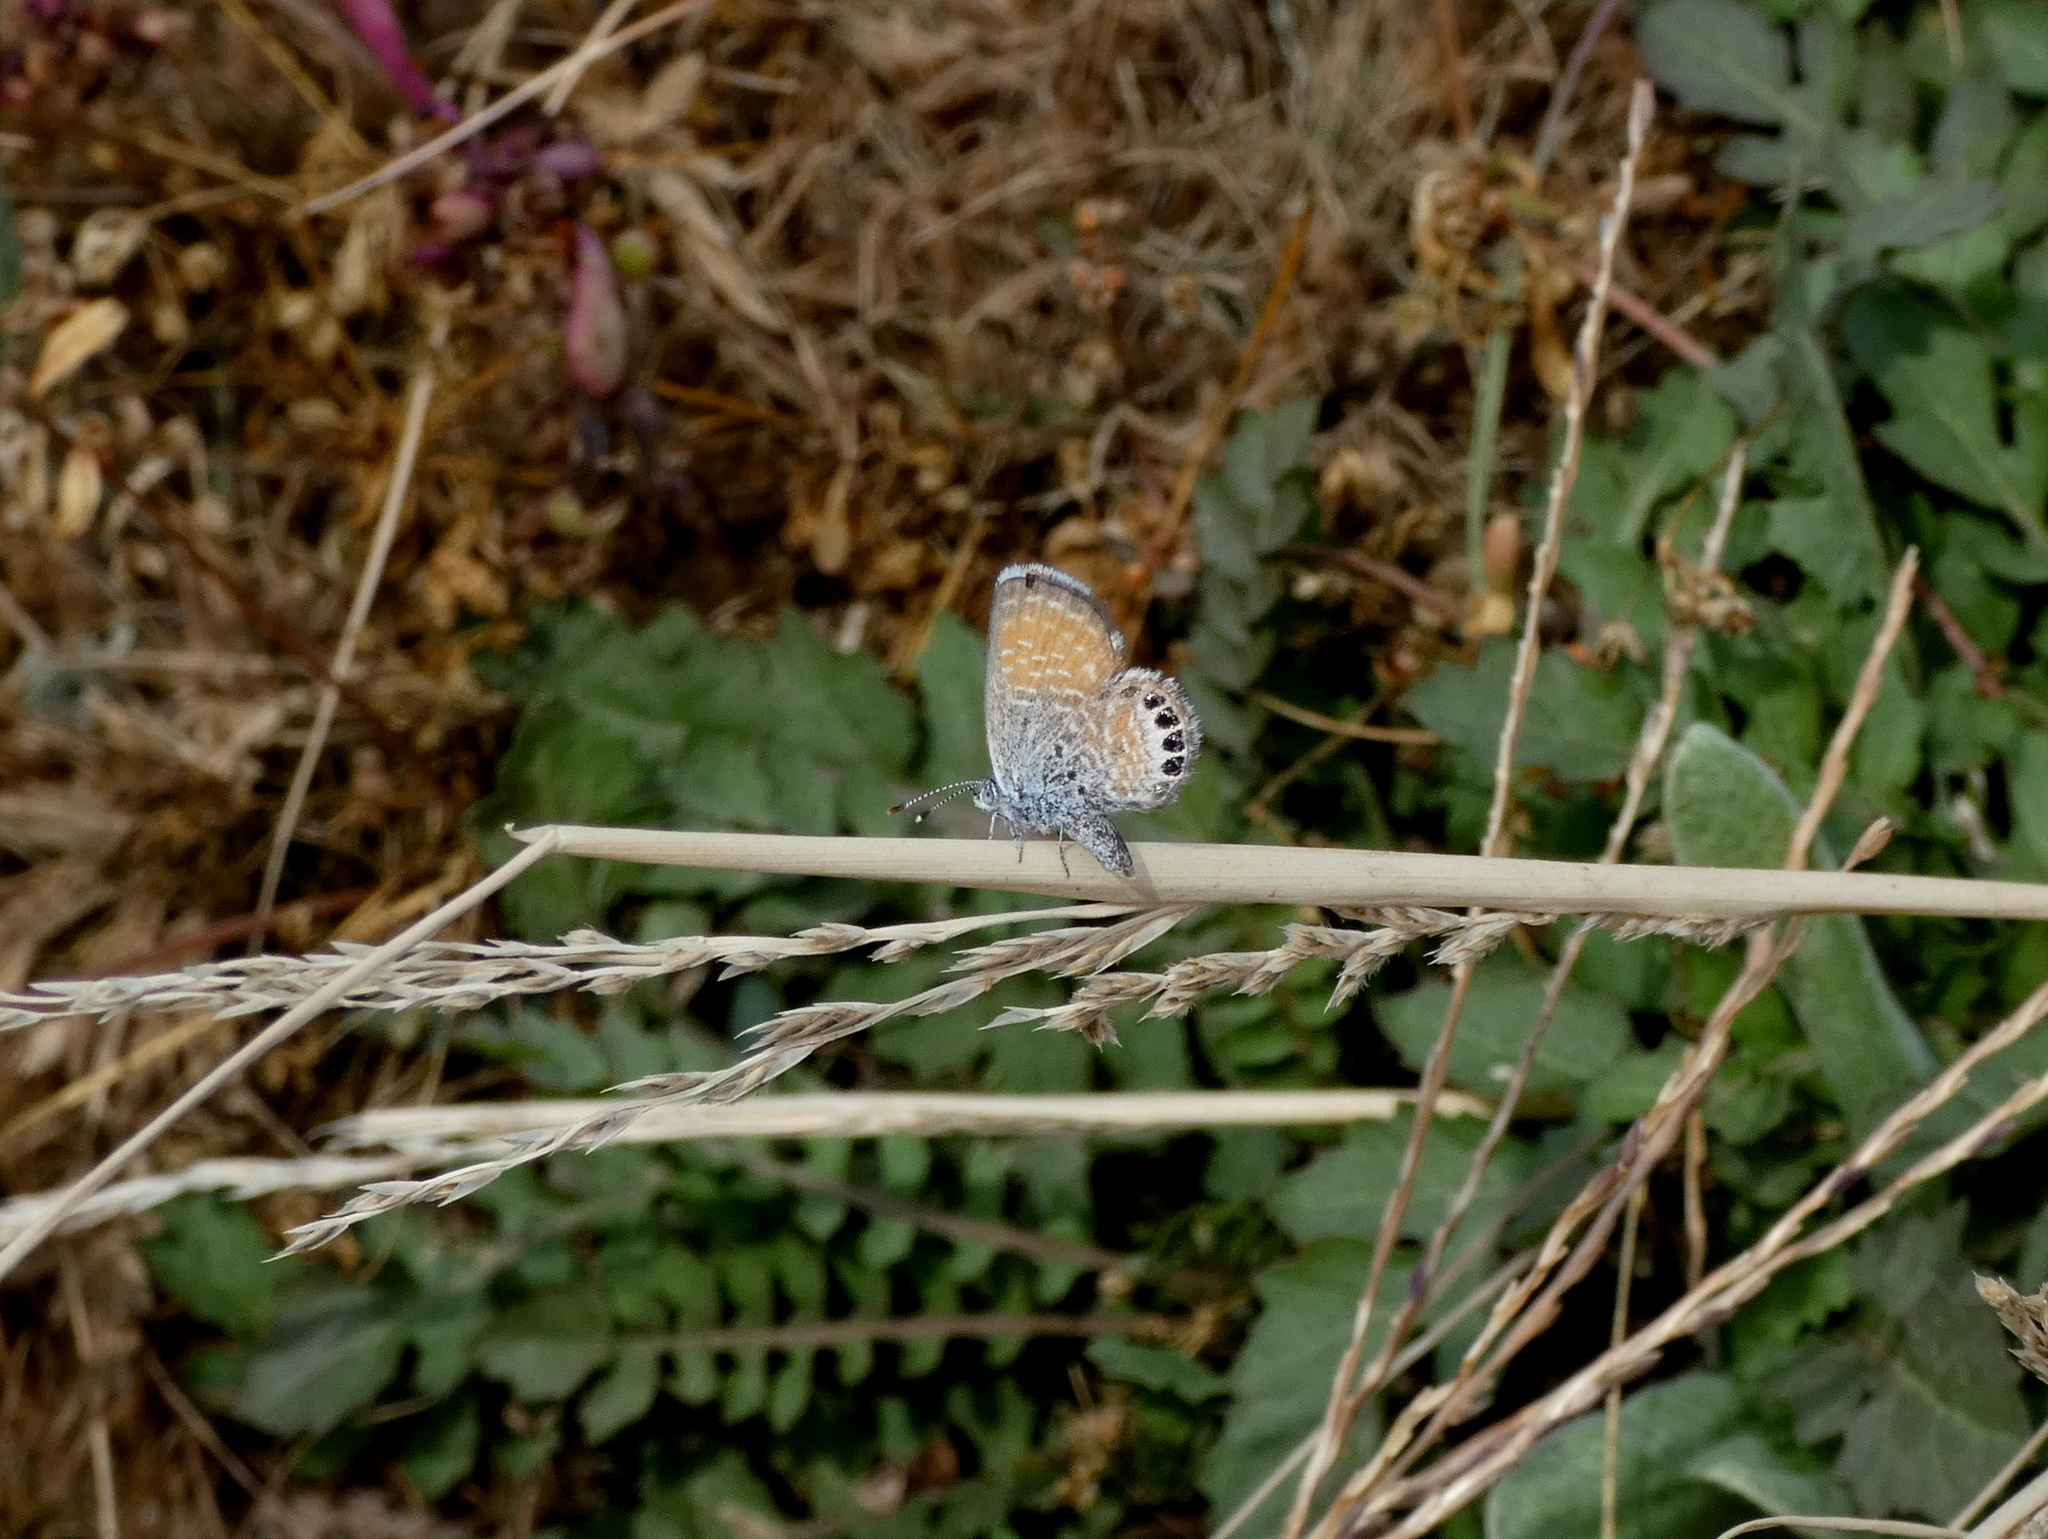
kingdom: Animalia
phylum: Arthropoda
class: Insecta
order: Lepidoptera
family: Lycaenidae
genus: Brephidium
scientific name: Brephidium exilis
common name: Pygmy blue
